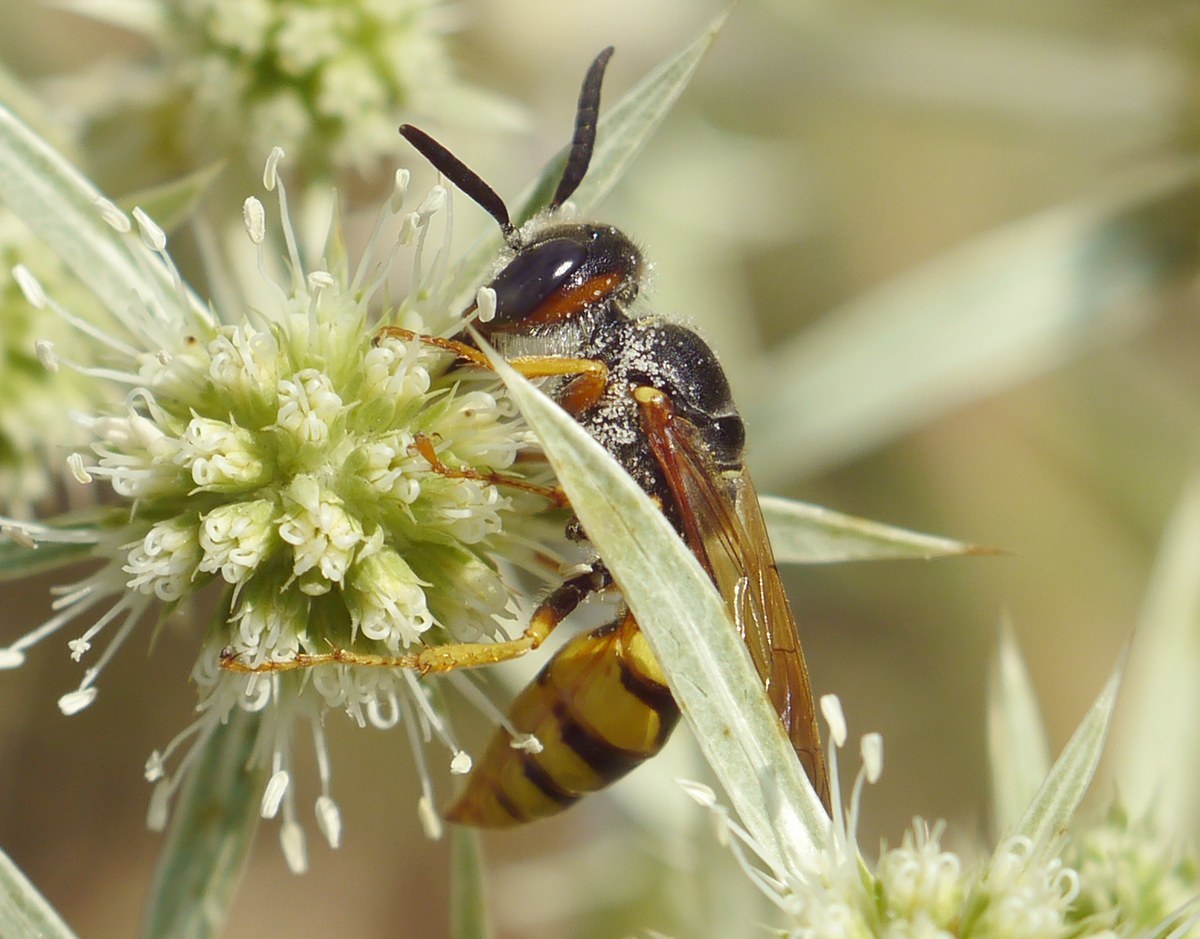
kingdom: Animalia
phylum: Arthropoda
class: Insecta
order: Hymenoptera
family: Crabronidae
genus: Philanthus
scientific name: Philanthus triangulum
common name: Bee wolf
